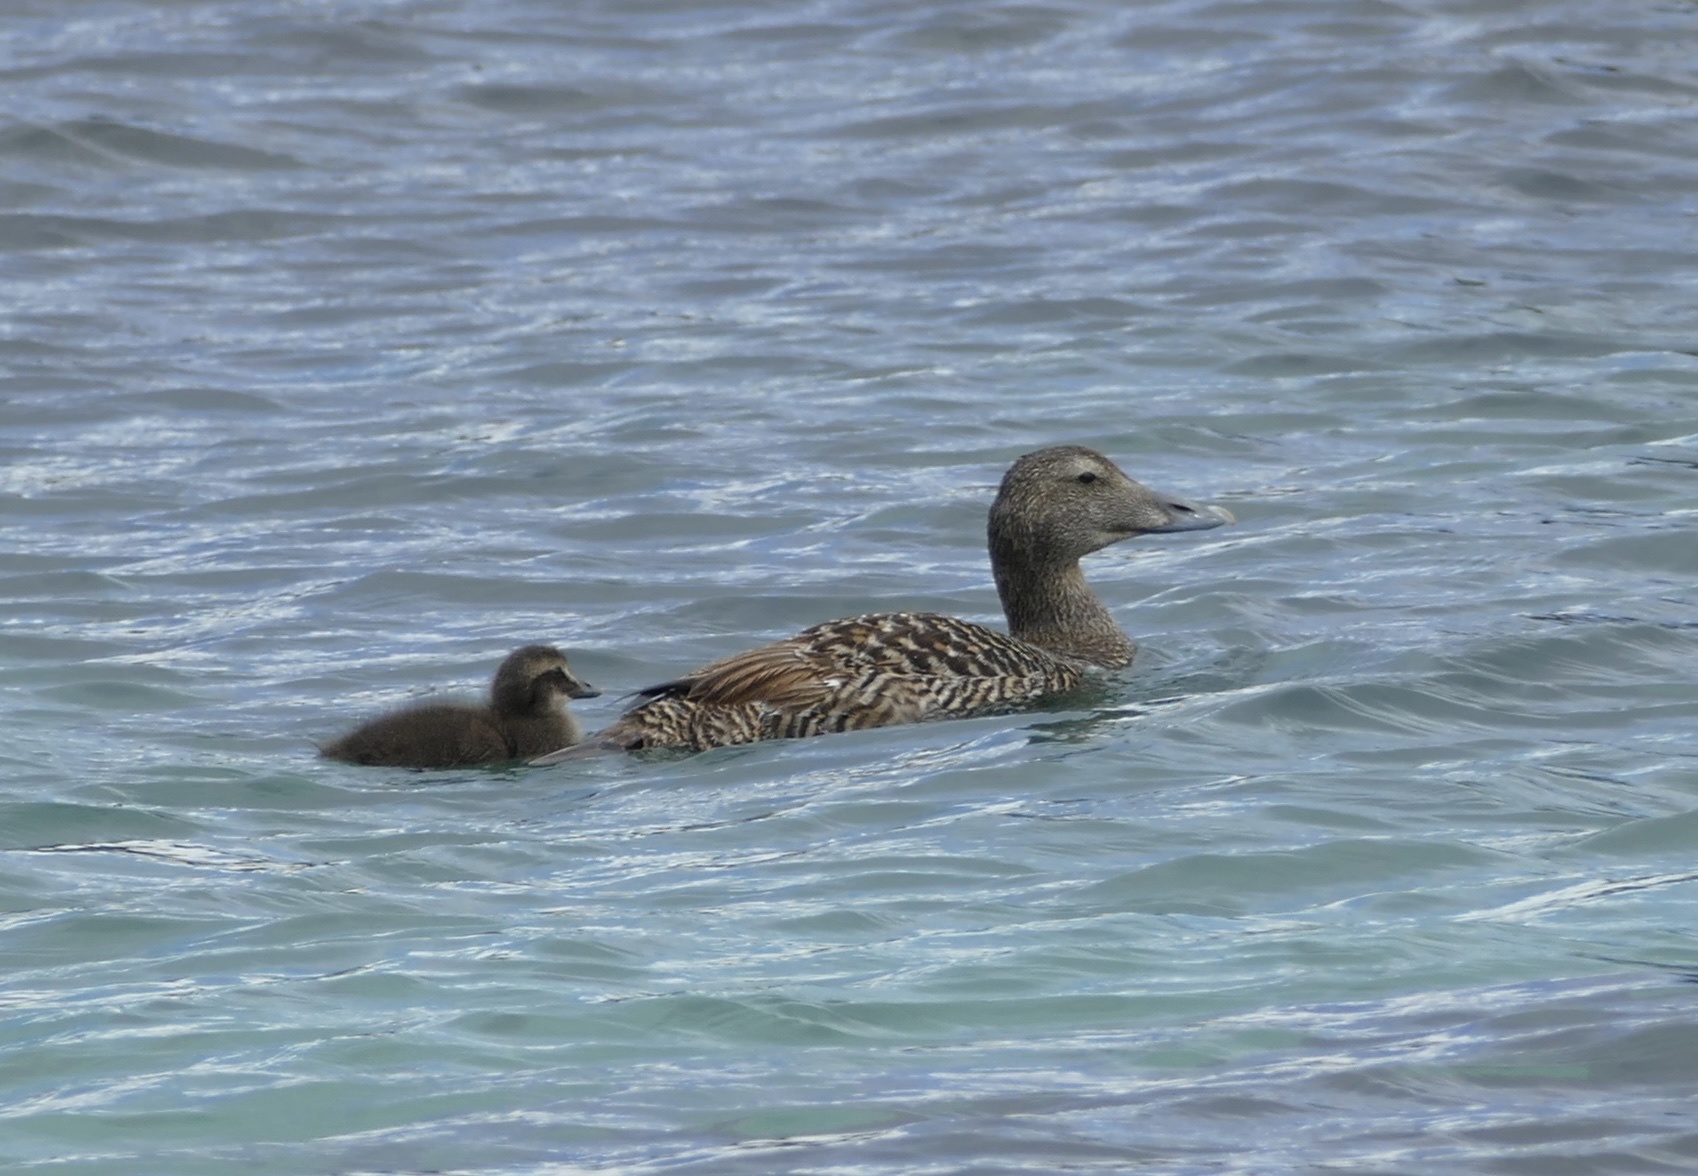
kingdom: Animalia
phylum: Chordata
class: Aves
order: Anseriformes
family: Anatidae
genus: Somateria
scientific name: Somateria mollissima
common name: Common eider
